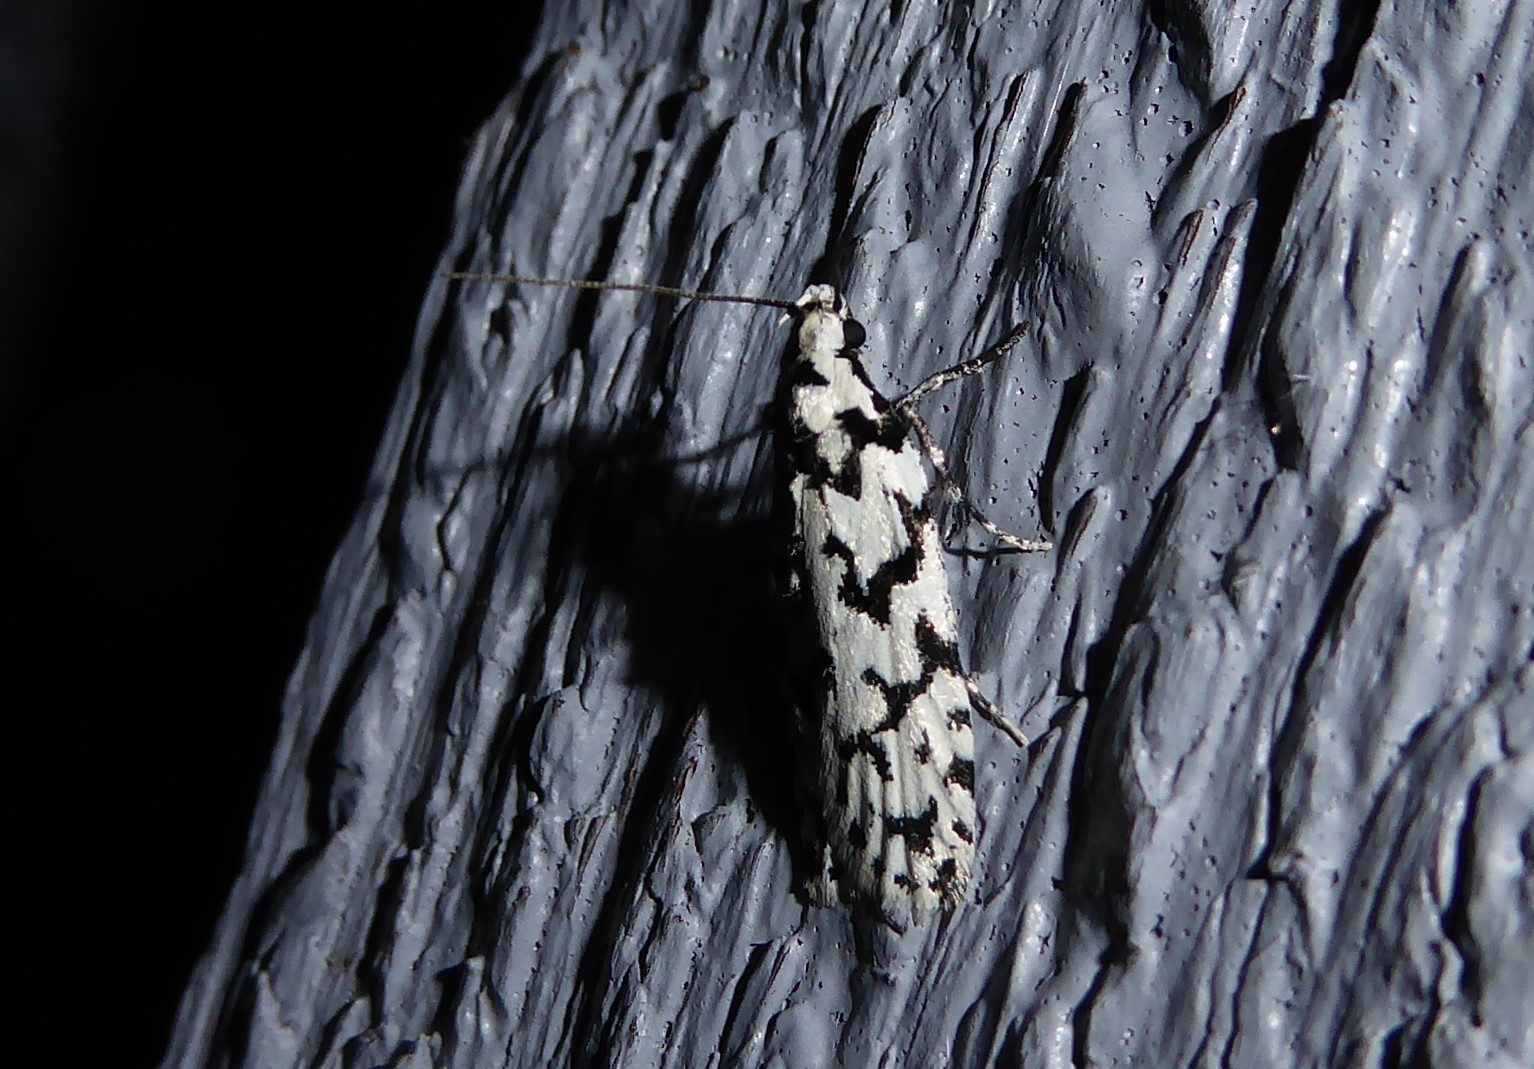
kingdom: Animalia
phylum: Arthropoda
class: Insecta
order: Lepidoptera
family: Oecophoridae
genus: Izatha
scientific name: Izatha katadiktya
